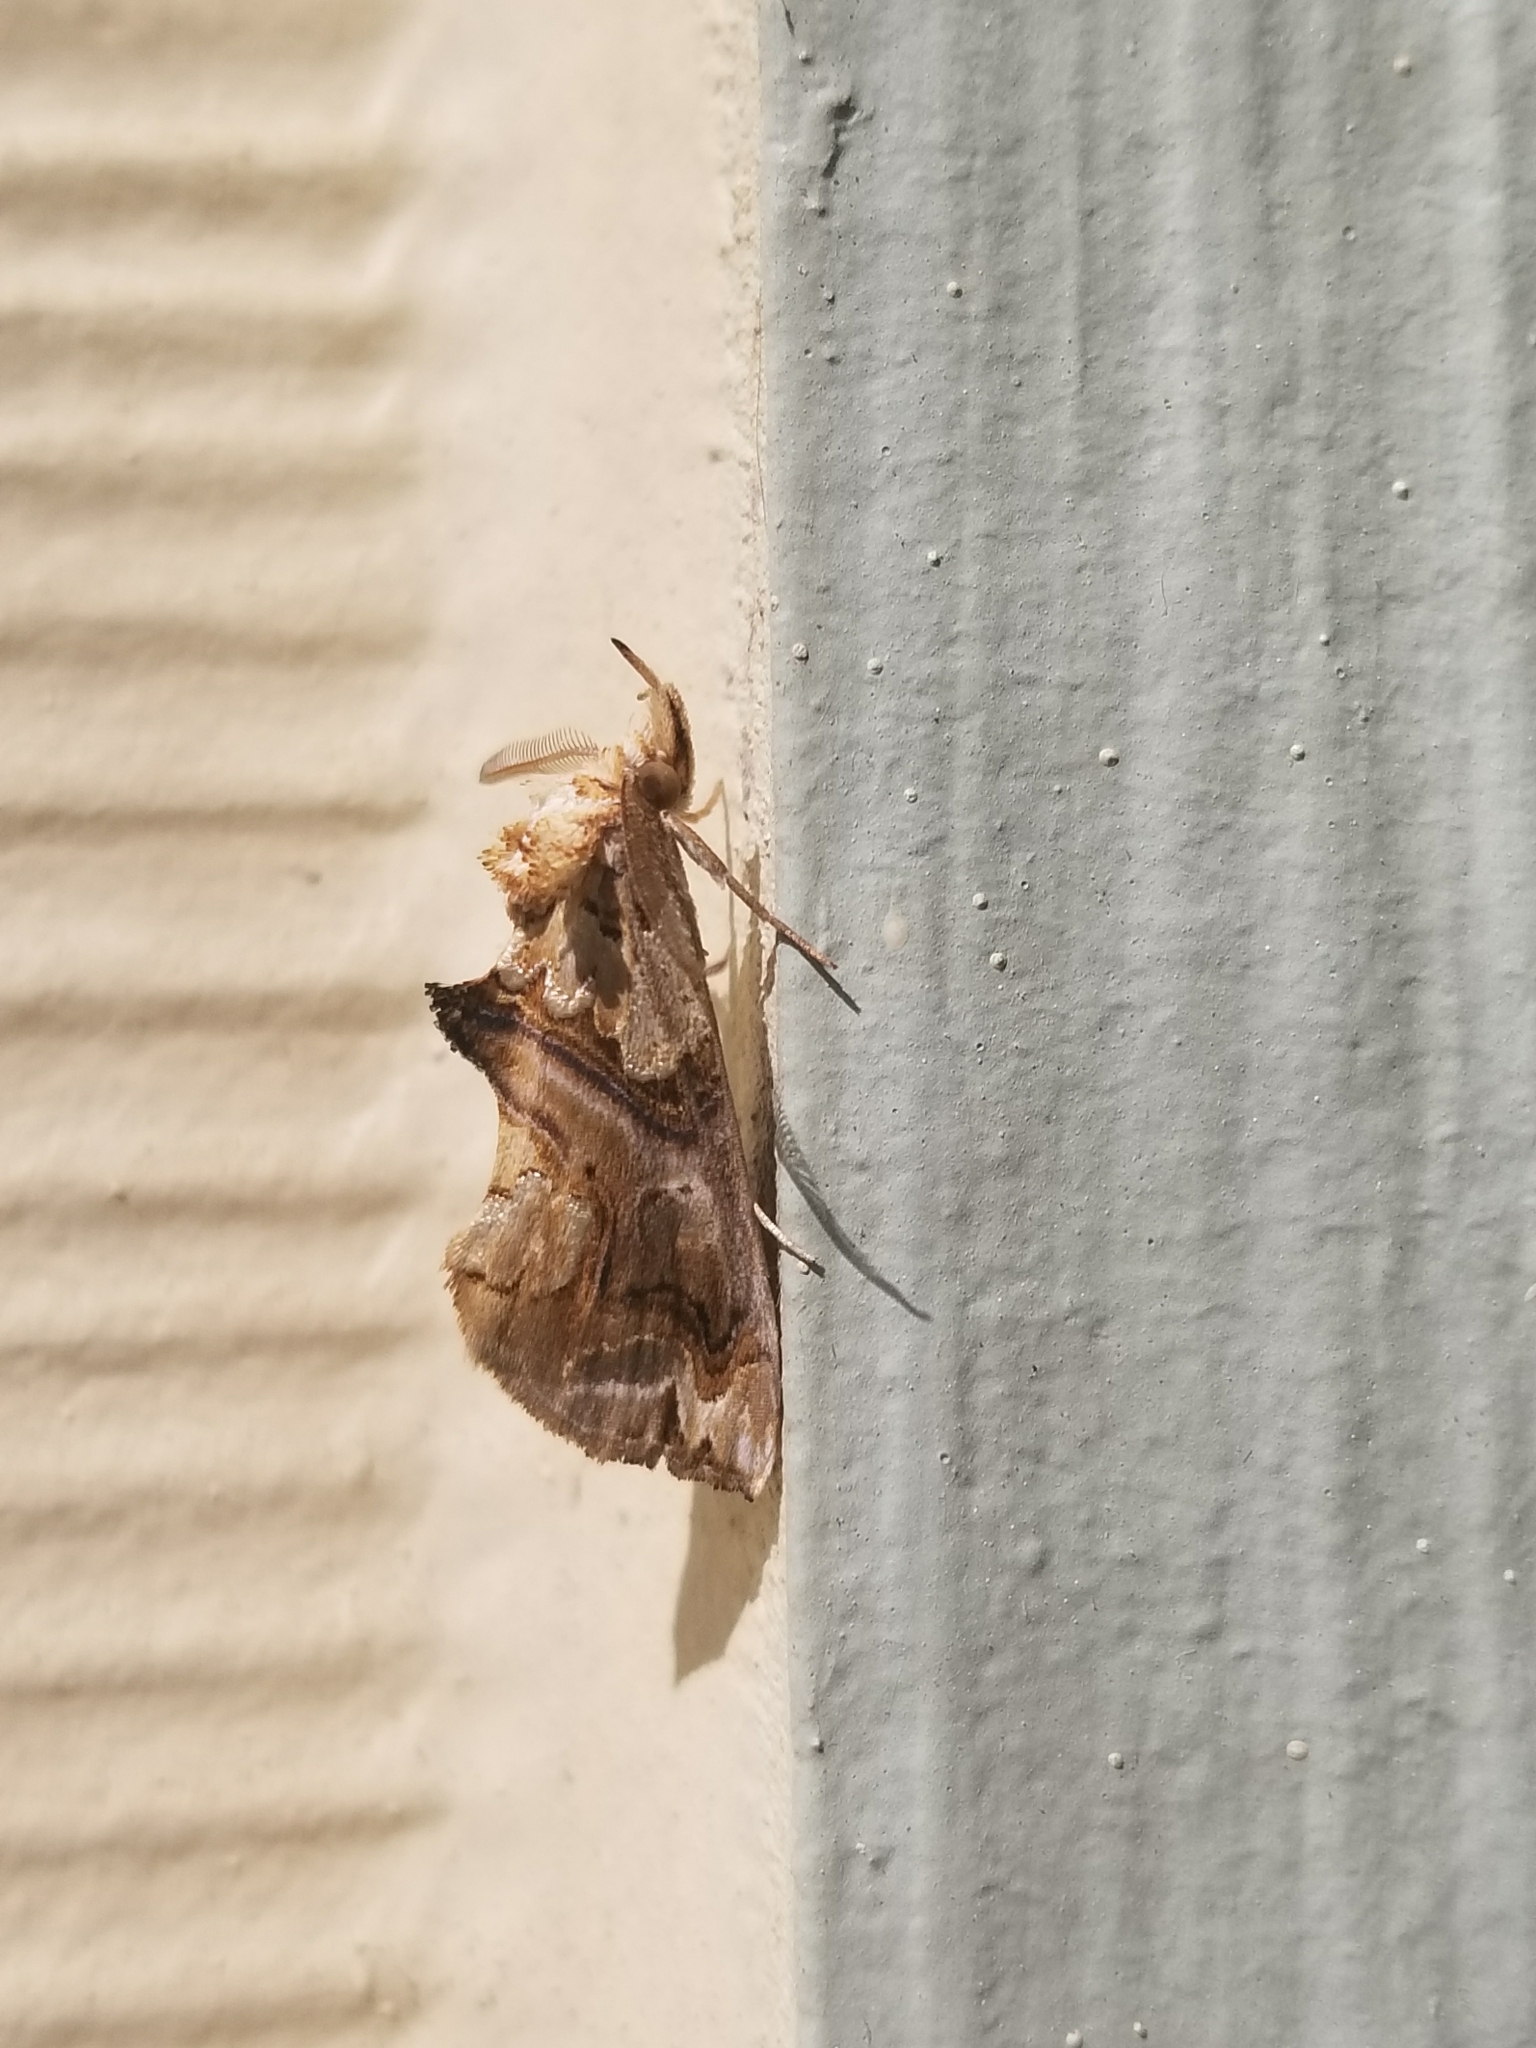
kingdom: Animalia
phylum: Arthropoda
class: Insecta
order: Lepidoptera
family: Erebidae
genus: Plusiodonta
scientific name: Plusiodonta compressipalpis
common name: Moonseed moth
